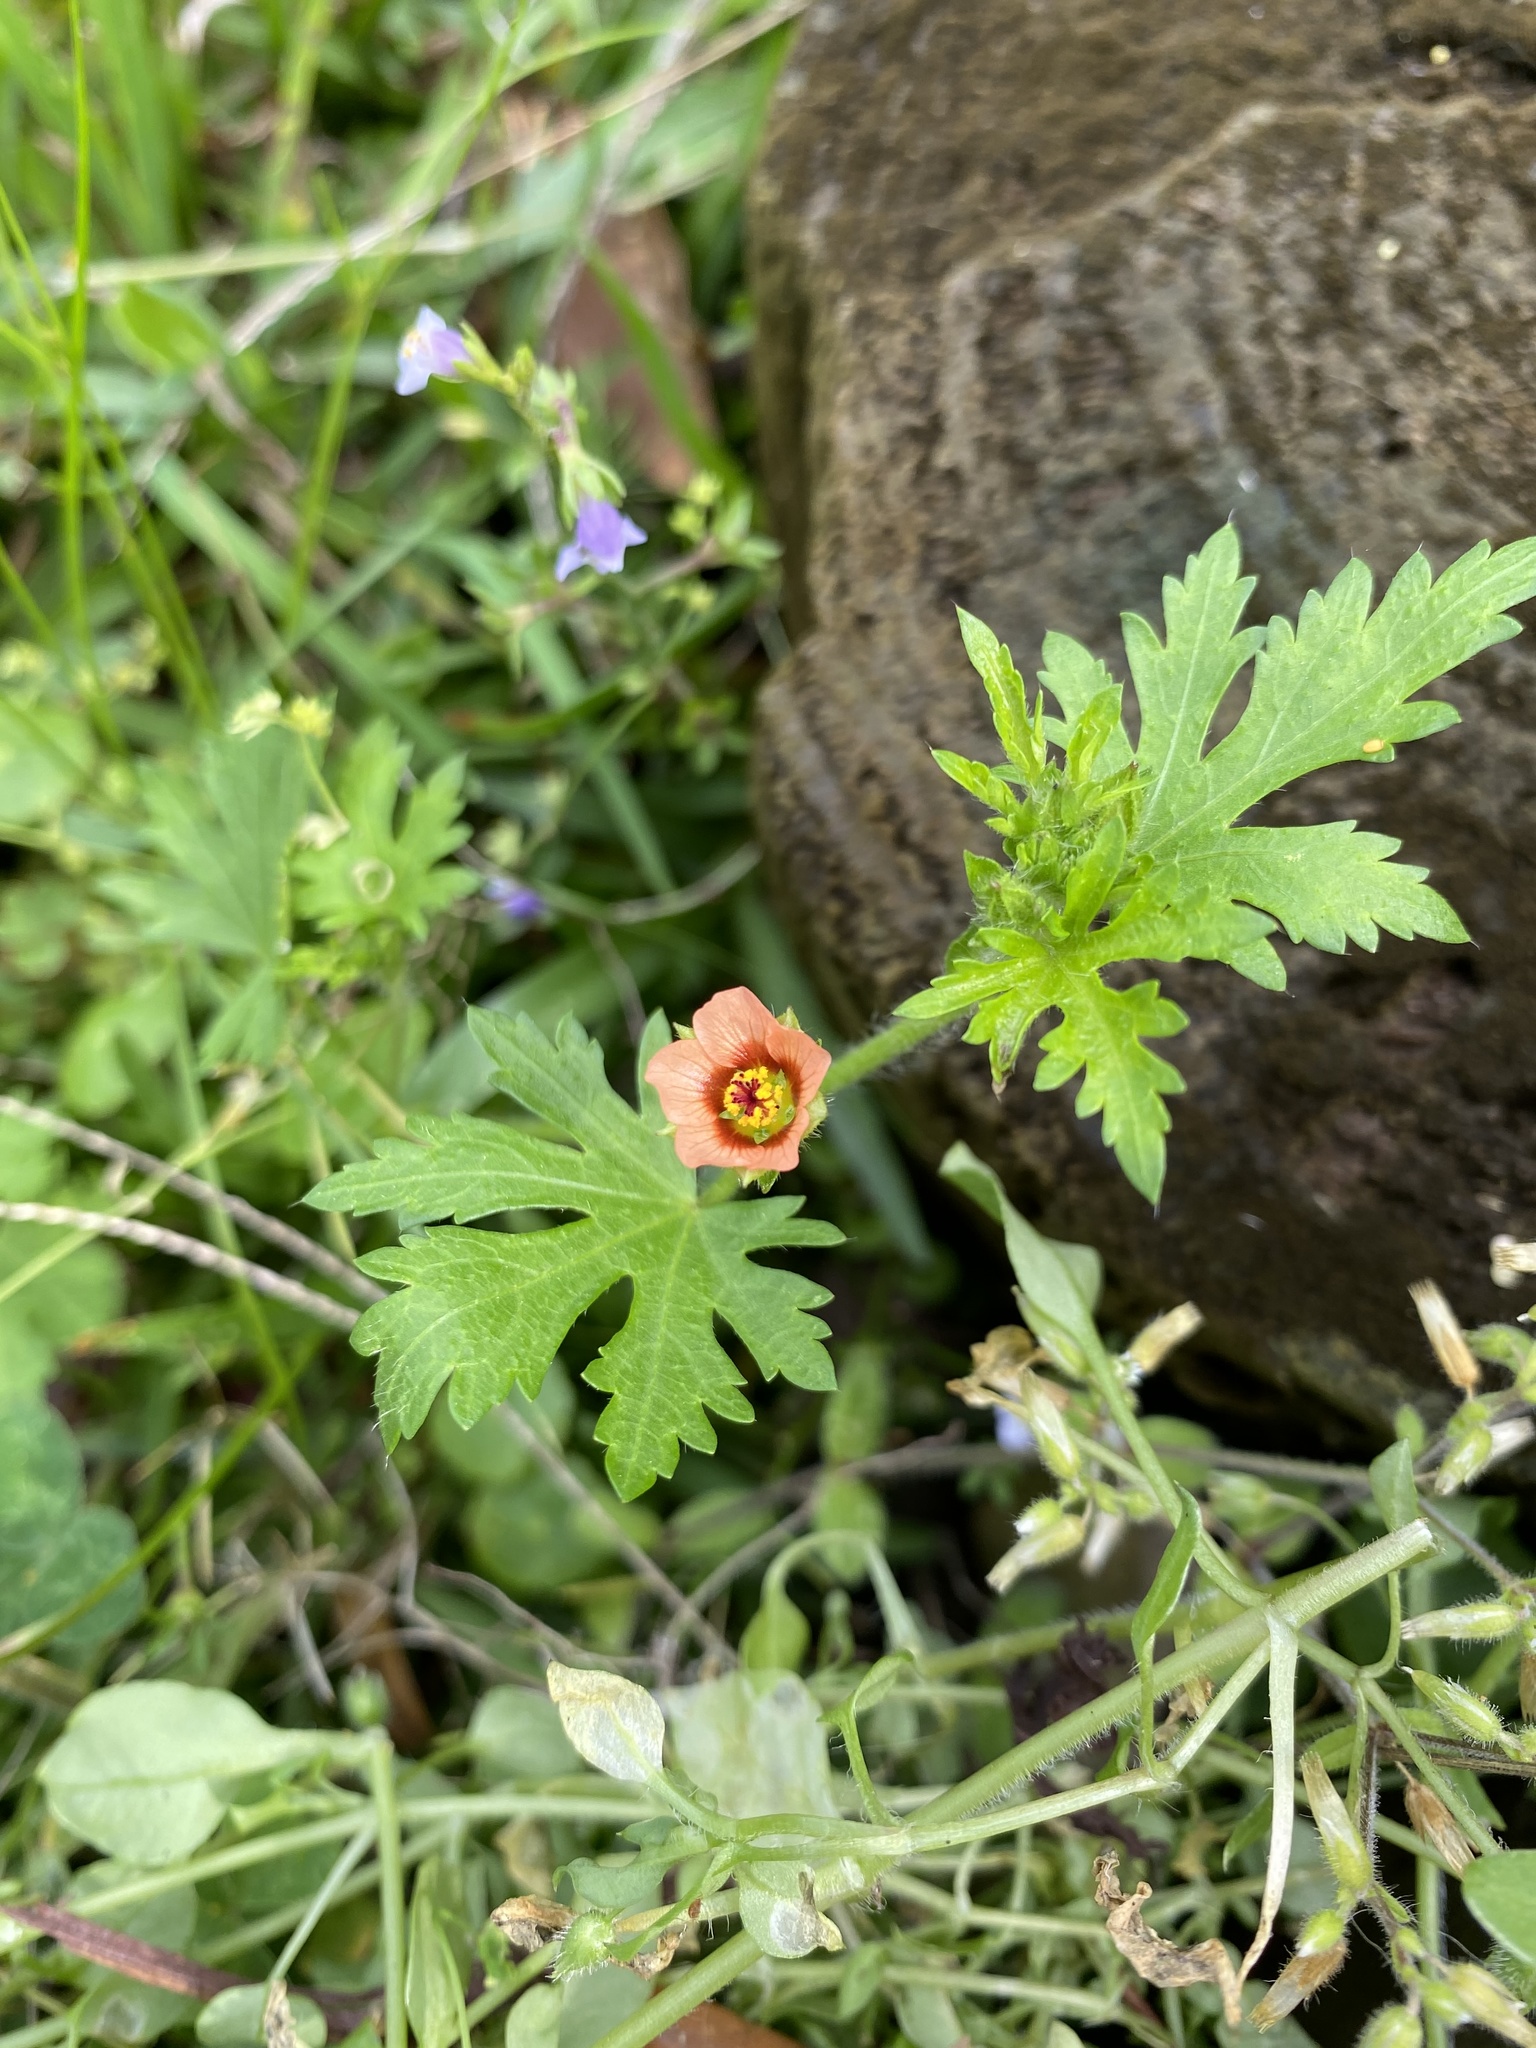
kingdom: Plantae
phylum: Tracheophyta
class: Magnoliopsida
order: Malvales
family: Malvaceae
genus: Modiola
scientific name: Modiola caroliniana
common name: Carolina bristlemallow
